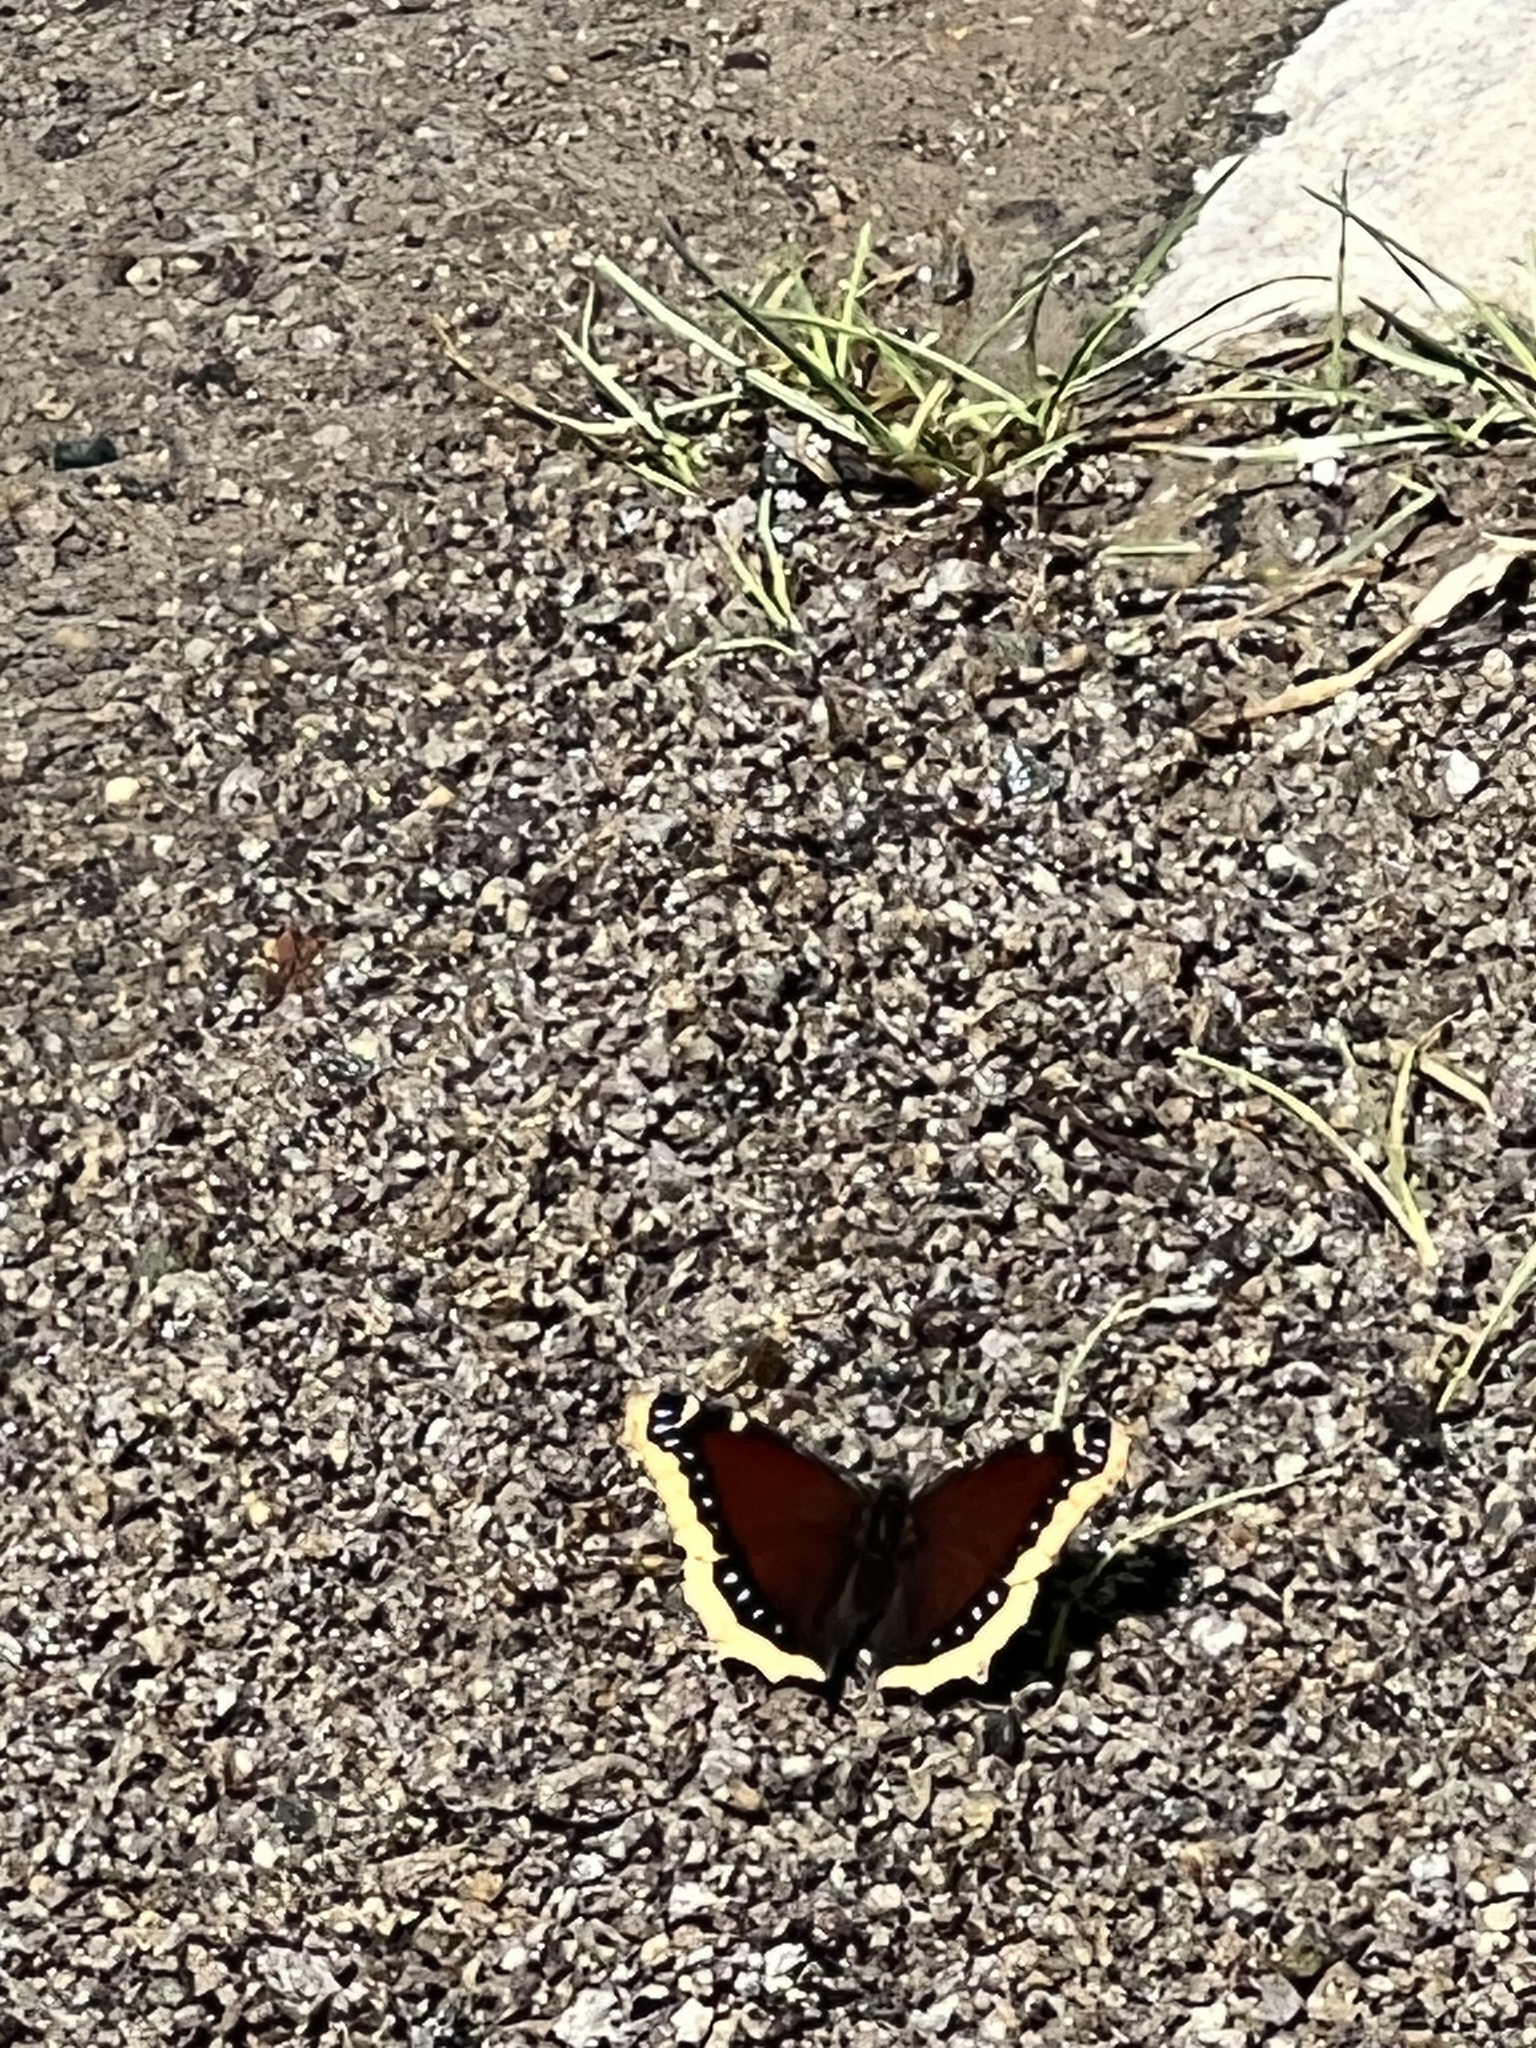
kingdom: Animalia
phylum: Arthropoda
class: Insecta
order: Lepidoptera
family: Nymphalidae
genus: Nymphalis
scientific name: Nymphalis antiopa
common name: Camberwell beauty
